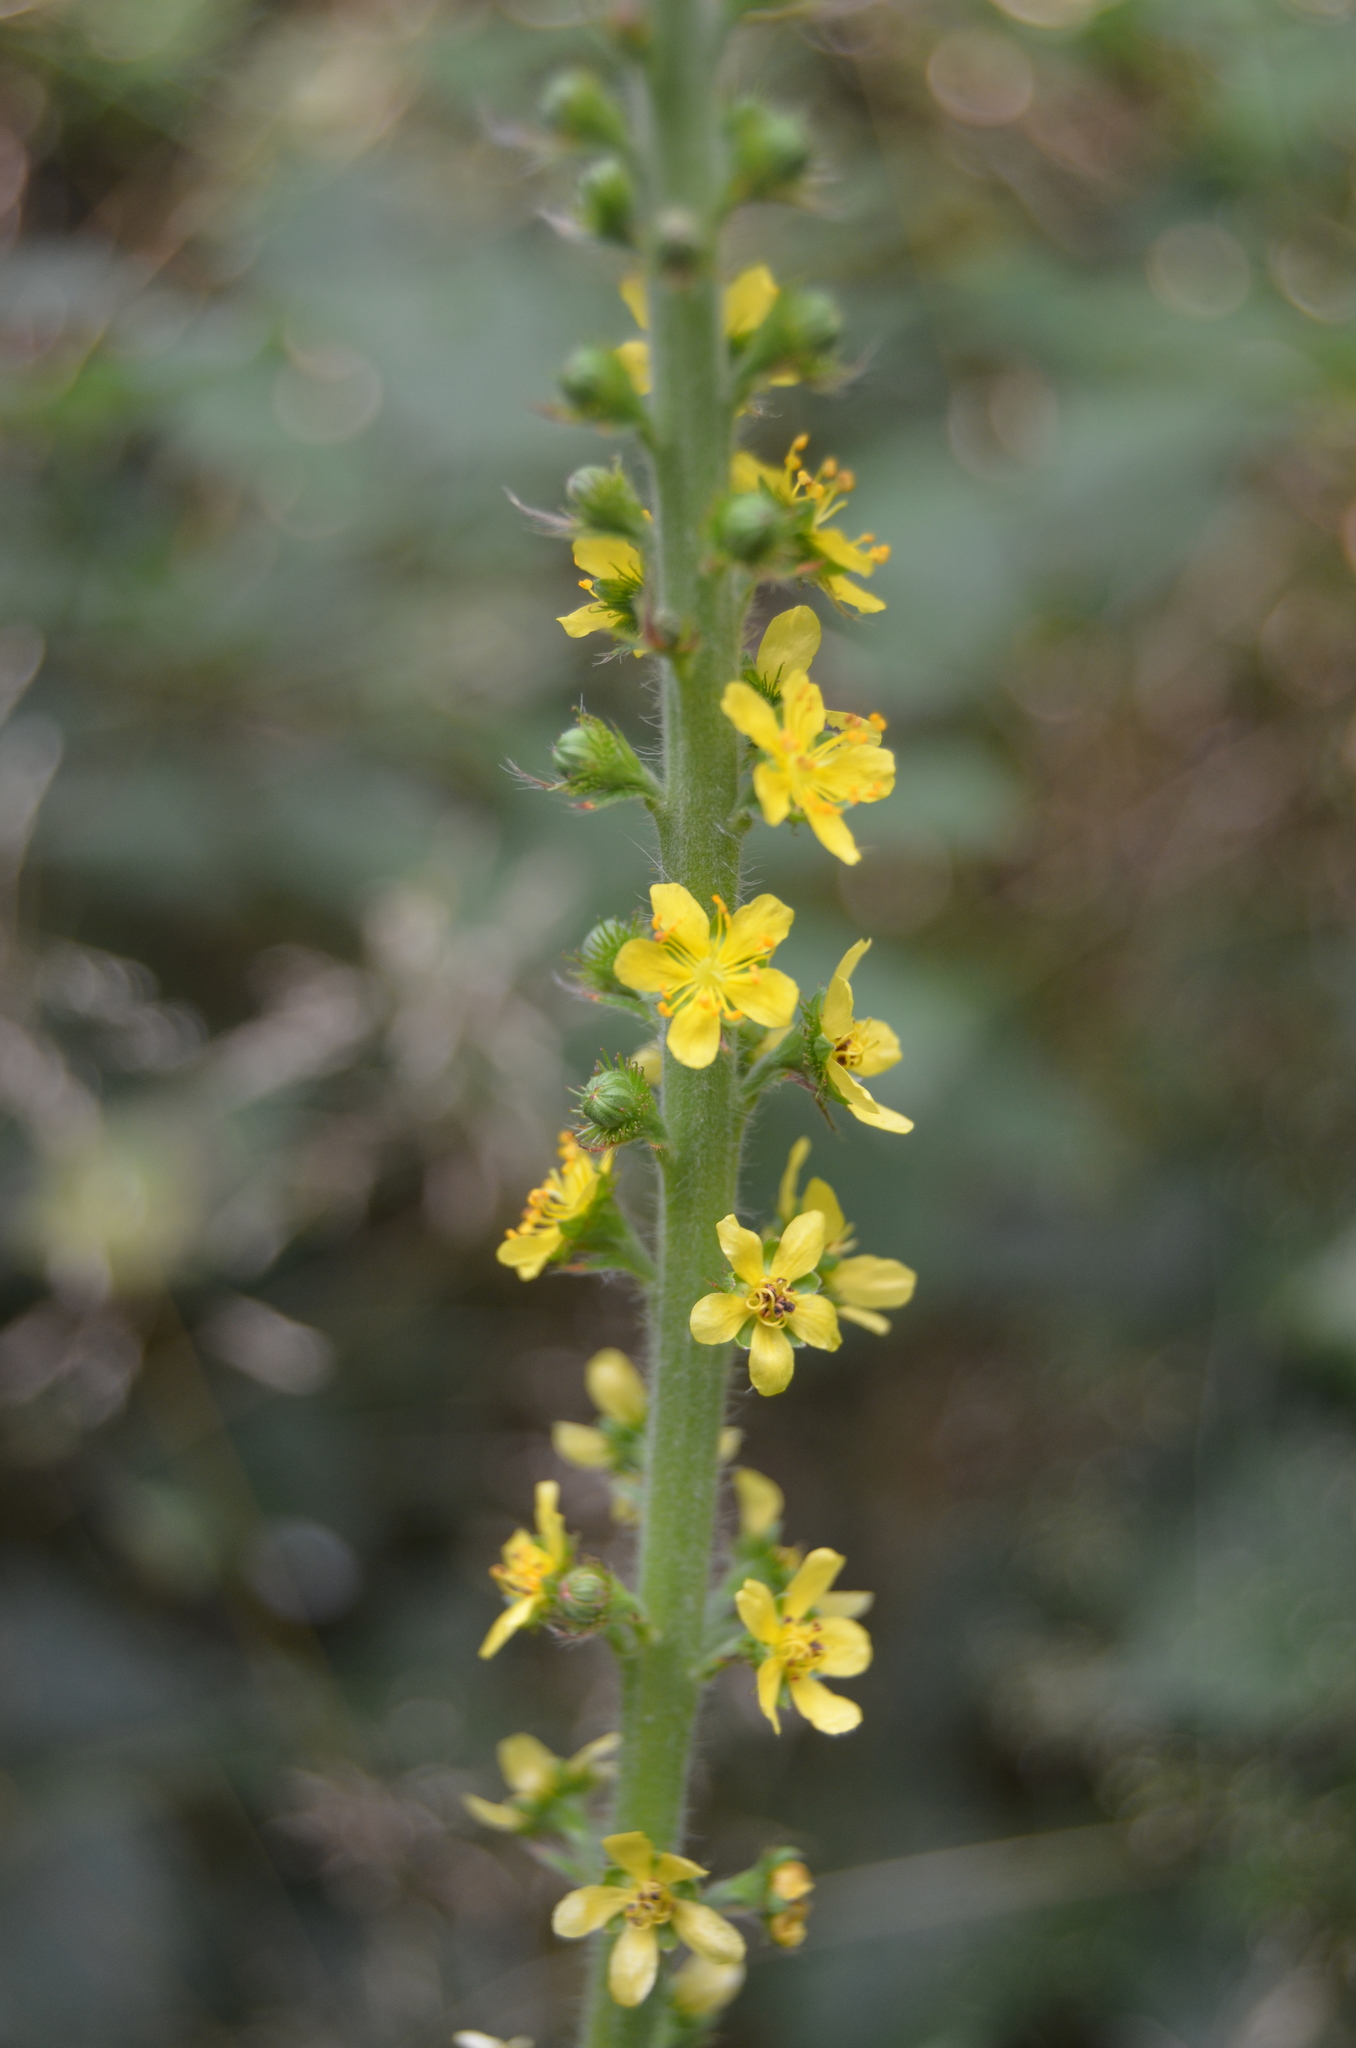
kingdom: Plantae
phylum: Tracheophyta
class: Magnoliopsida
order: Rosales
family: Rosaceae
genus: Agrimonia
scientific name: Agrimonia eupatoria
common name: Agrimony
